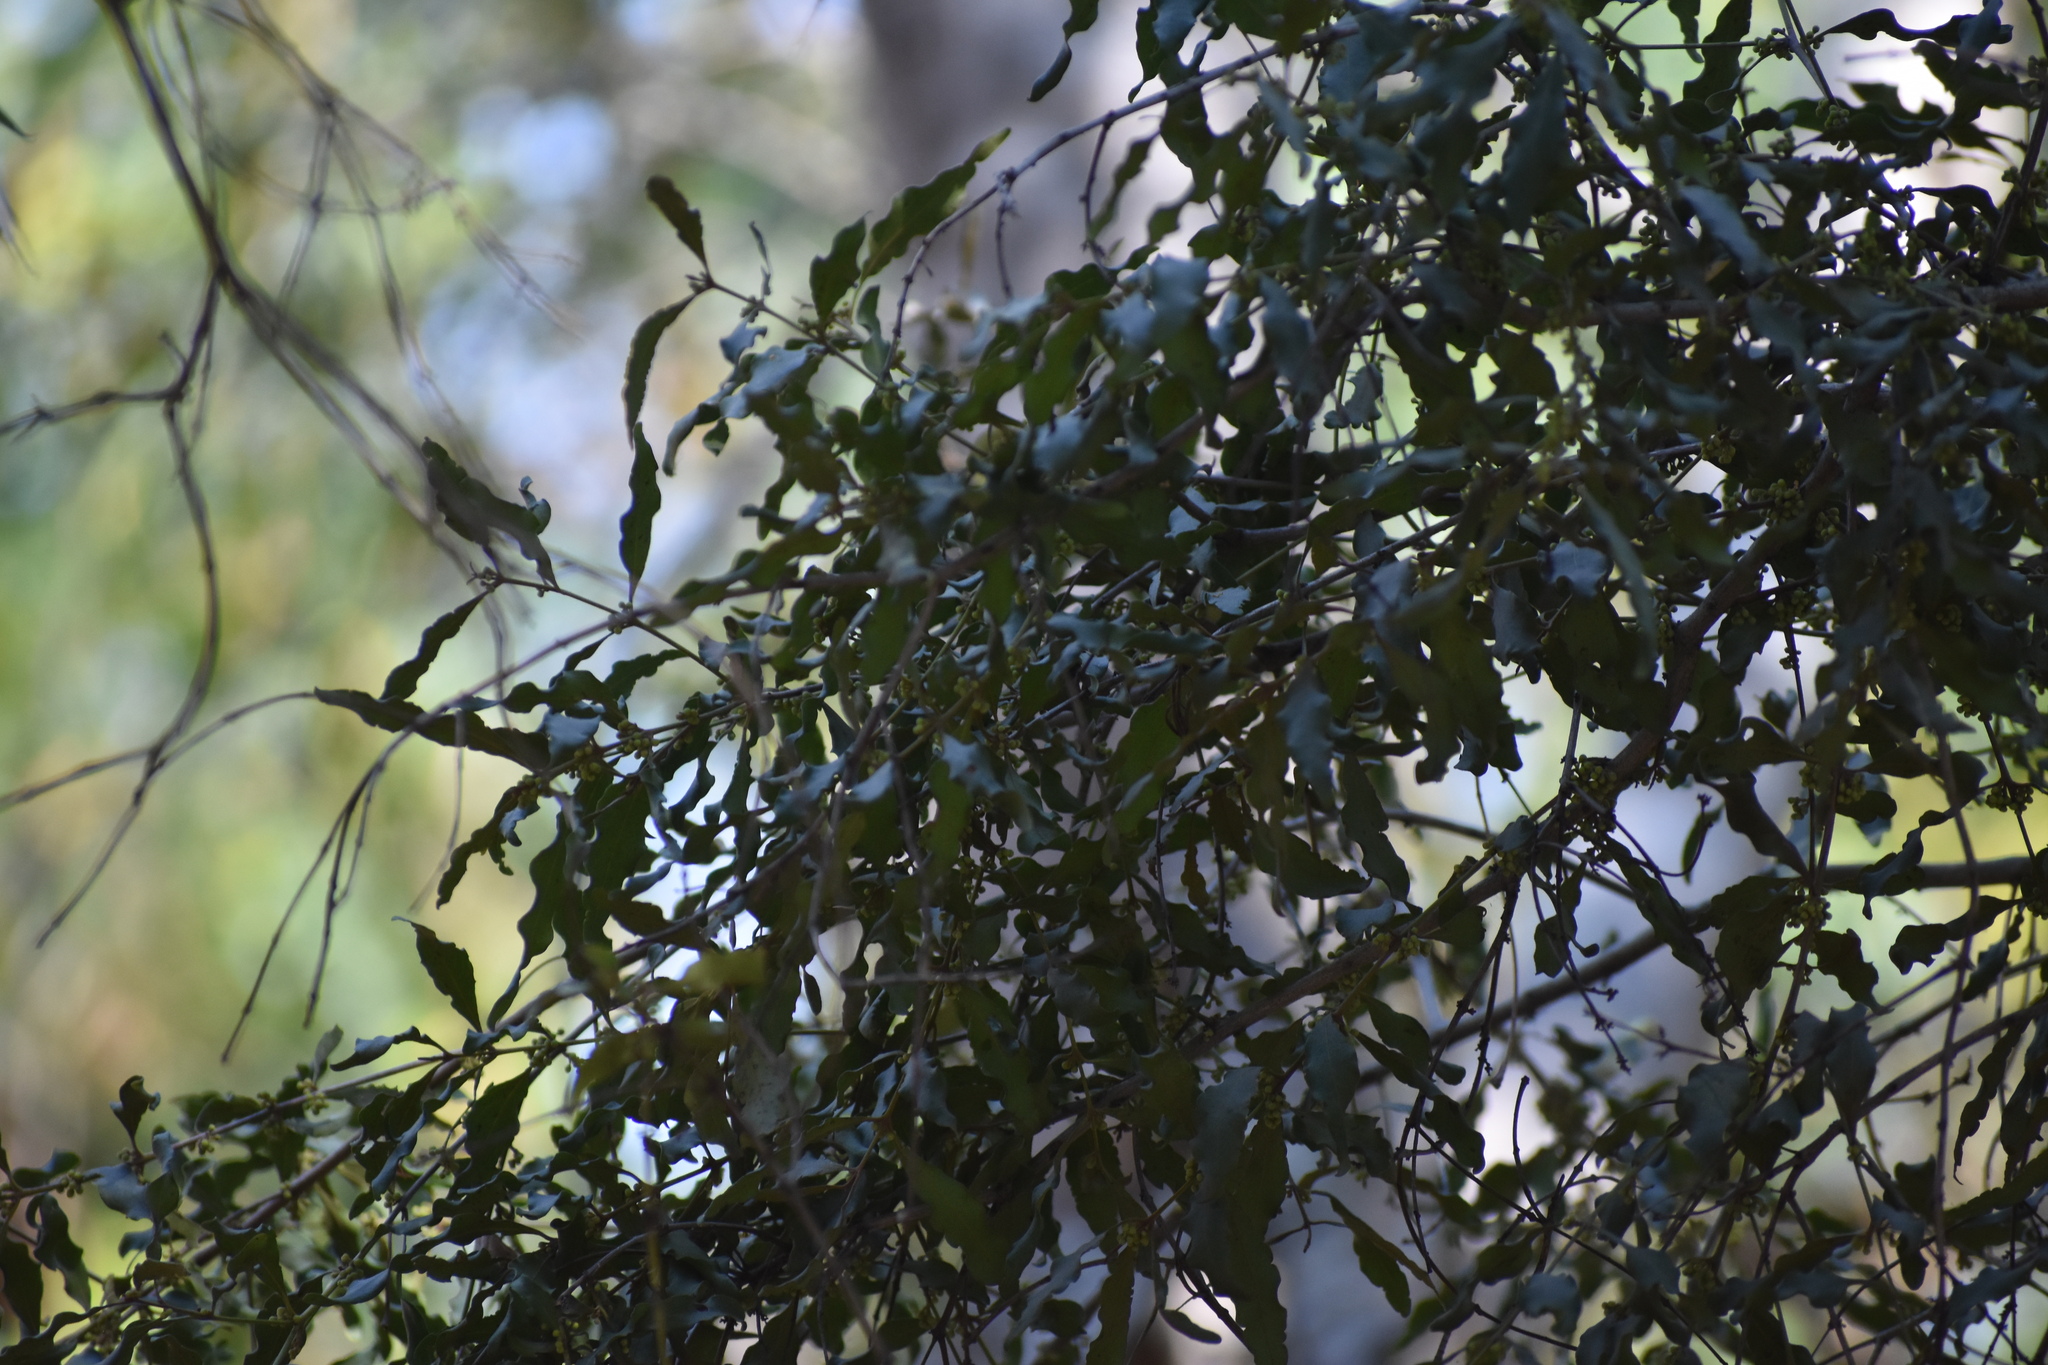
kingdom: Plantae
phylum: Tracheophyta
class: Magnoliopsida
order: Ericales
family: Ebenaceae
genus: Euclea
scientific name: Euclea divinorum
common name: Diamond-leaved euclea
